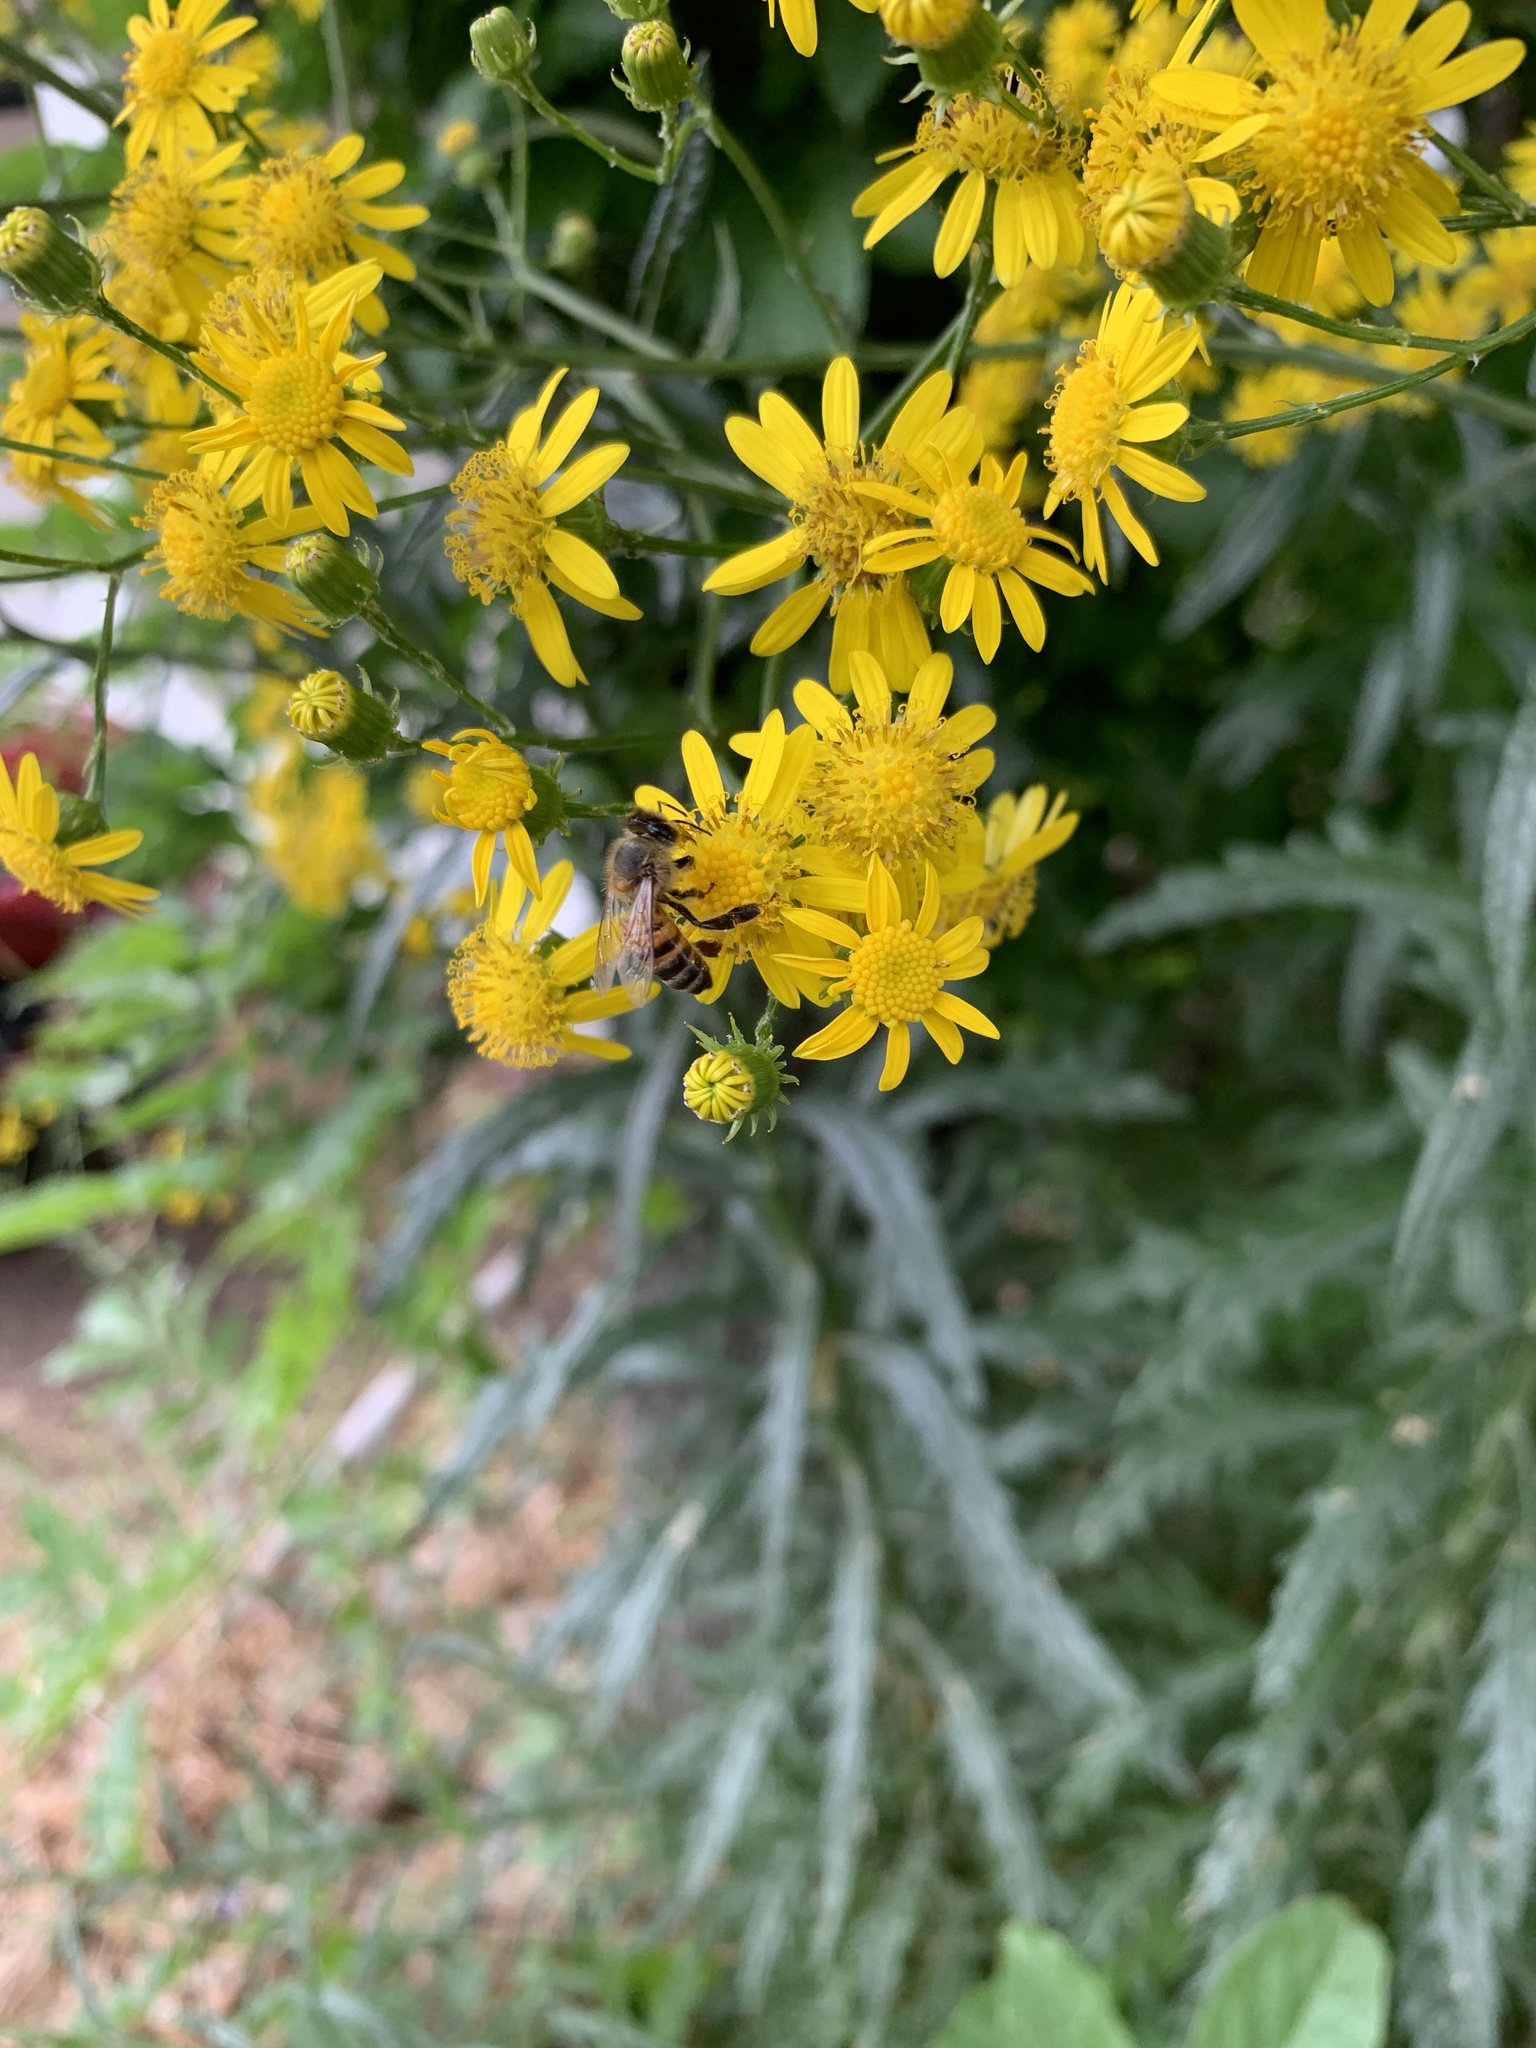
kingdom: Plantae
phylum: Tracheophyta
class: Magnoliopsida
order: Asterales
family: Asteraceae
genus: Senecio
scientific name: Senecio pterophorus
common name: Shoddy ragwort
